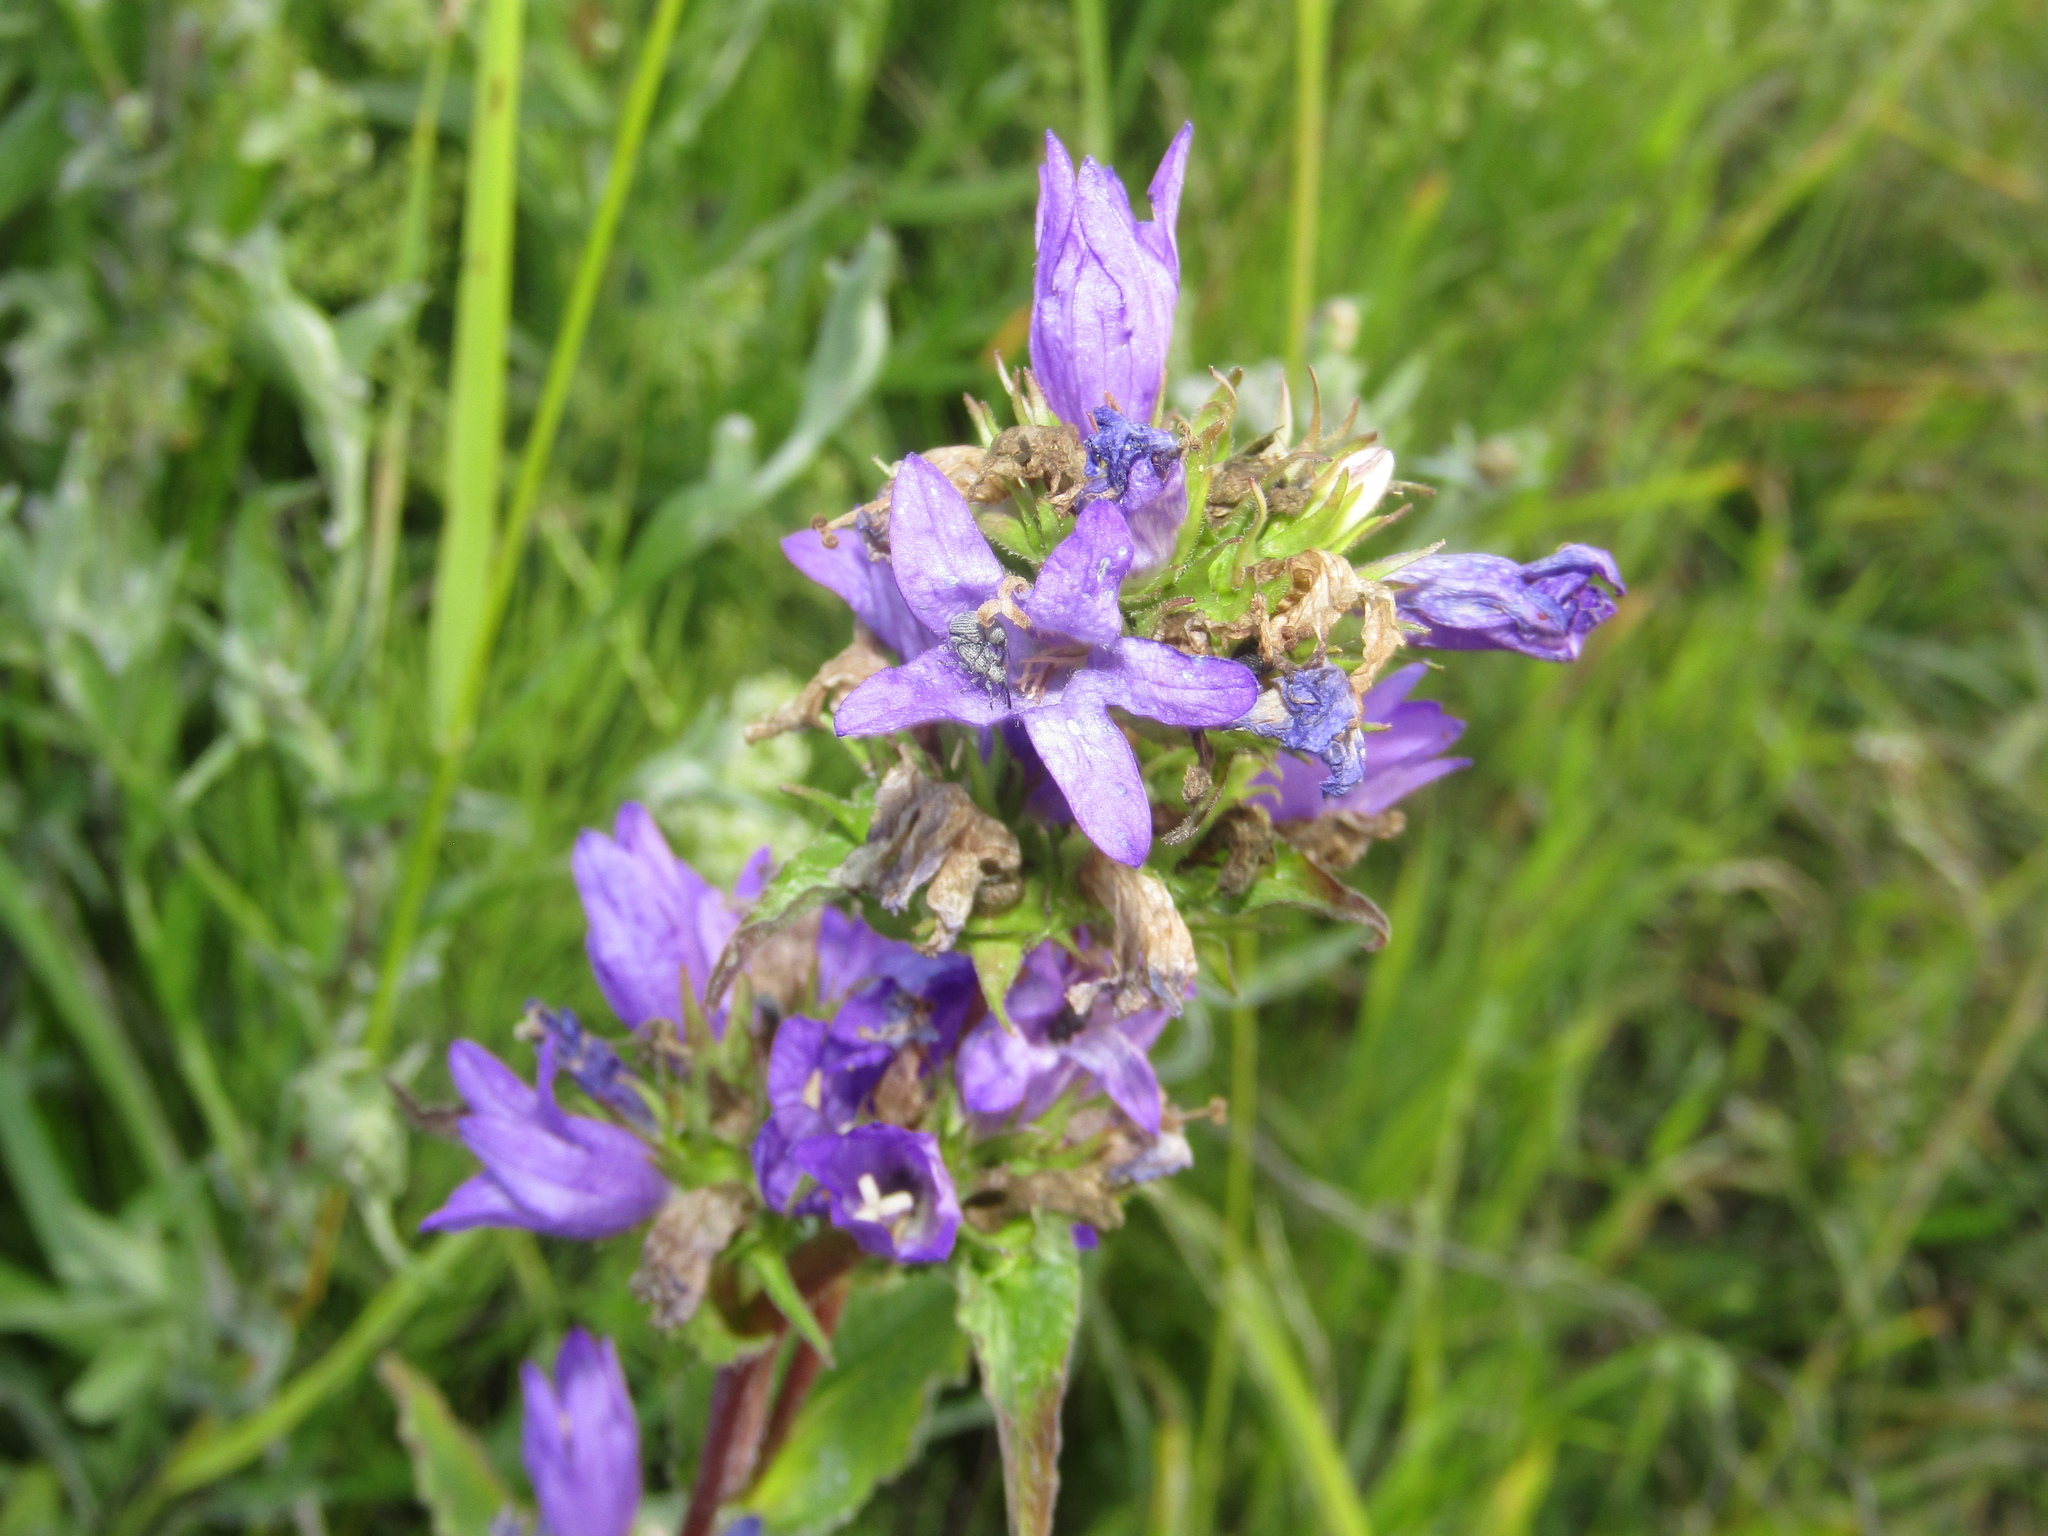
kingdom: Plantae
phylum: Tracheophyta
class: Magnoliopsida
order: Asterales
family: Campanulaceae
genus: Campanula
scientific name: Campanula glomerata
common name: Clustered bellflower
